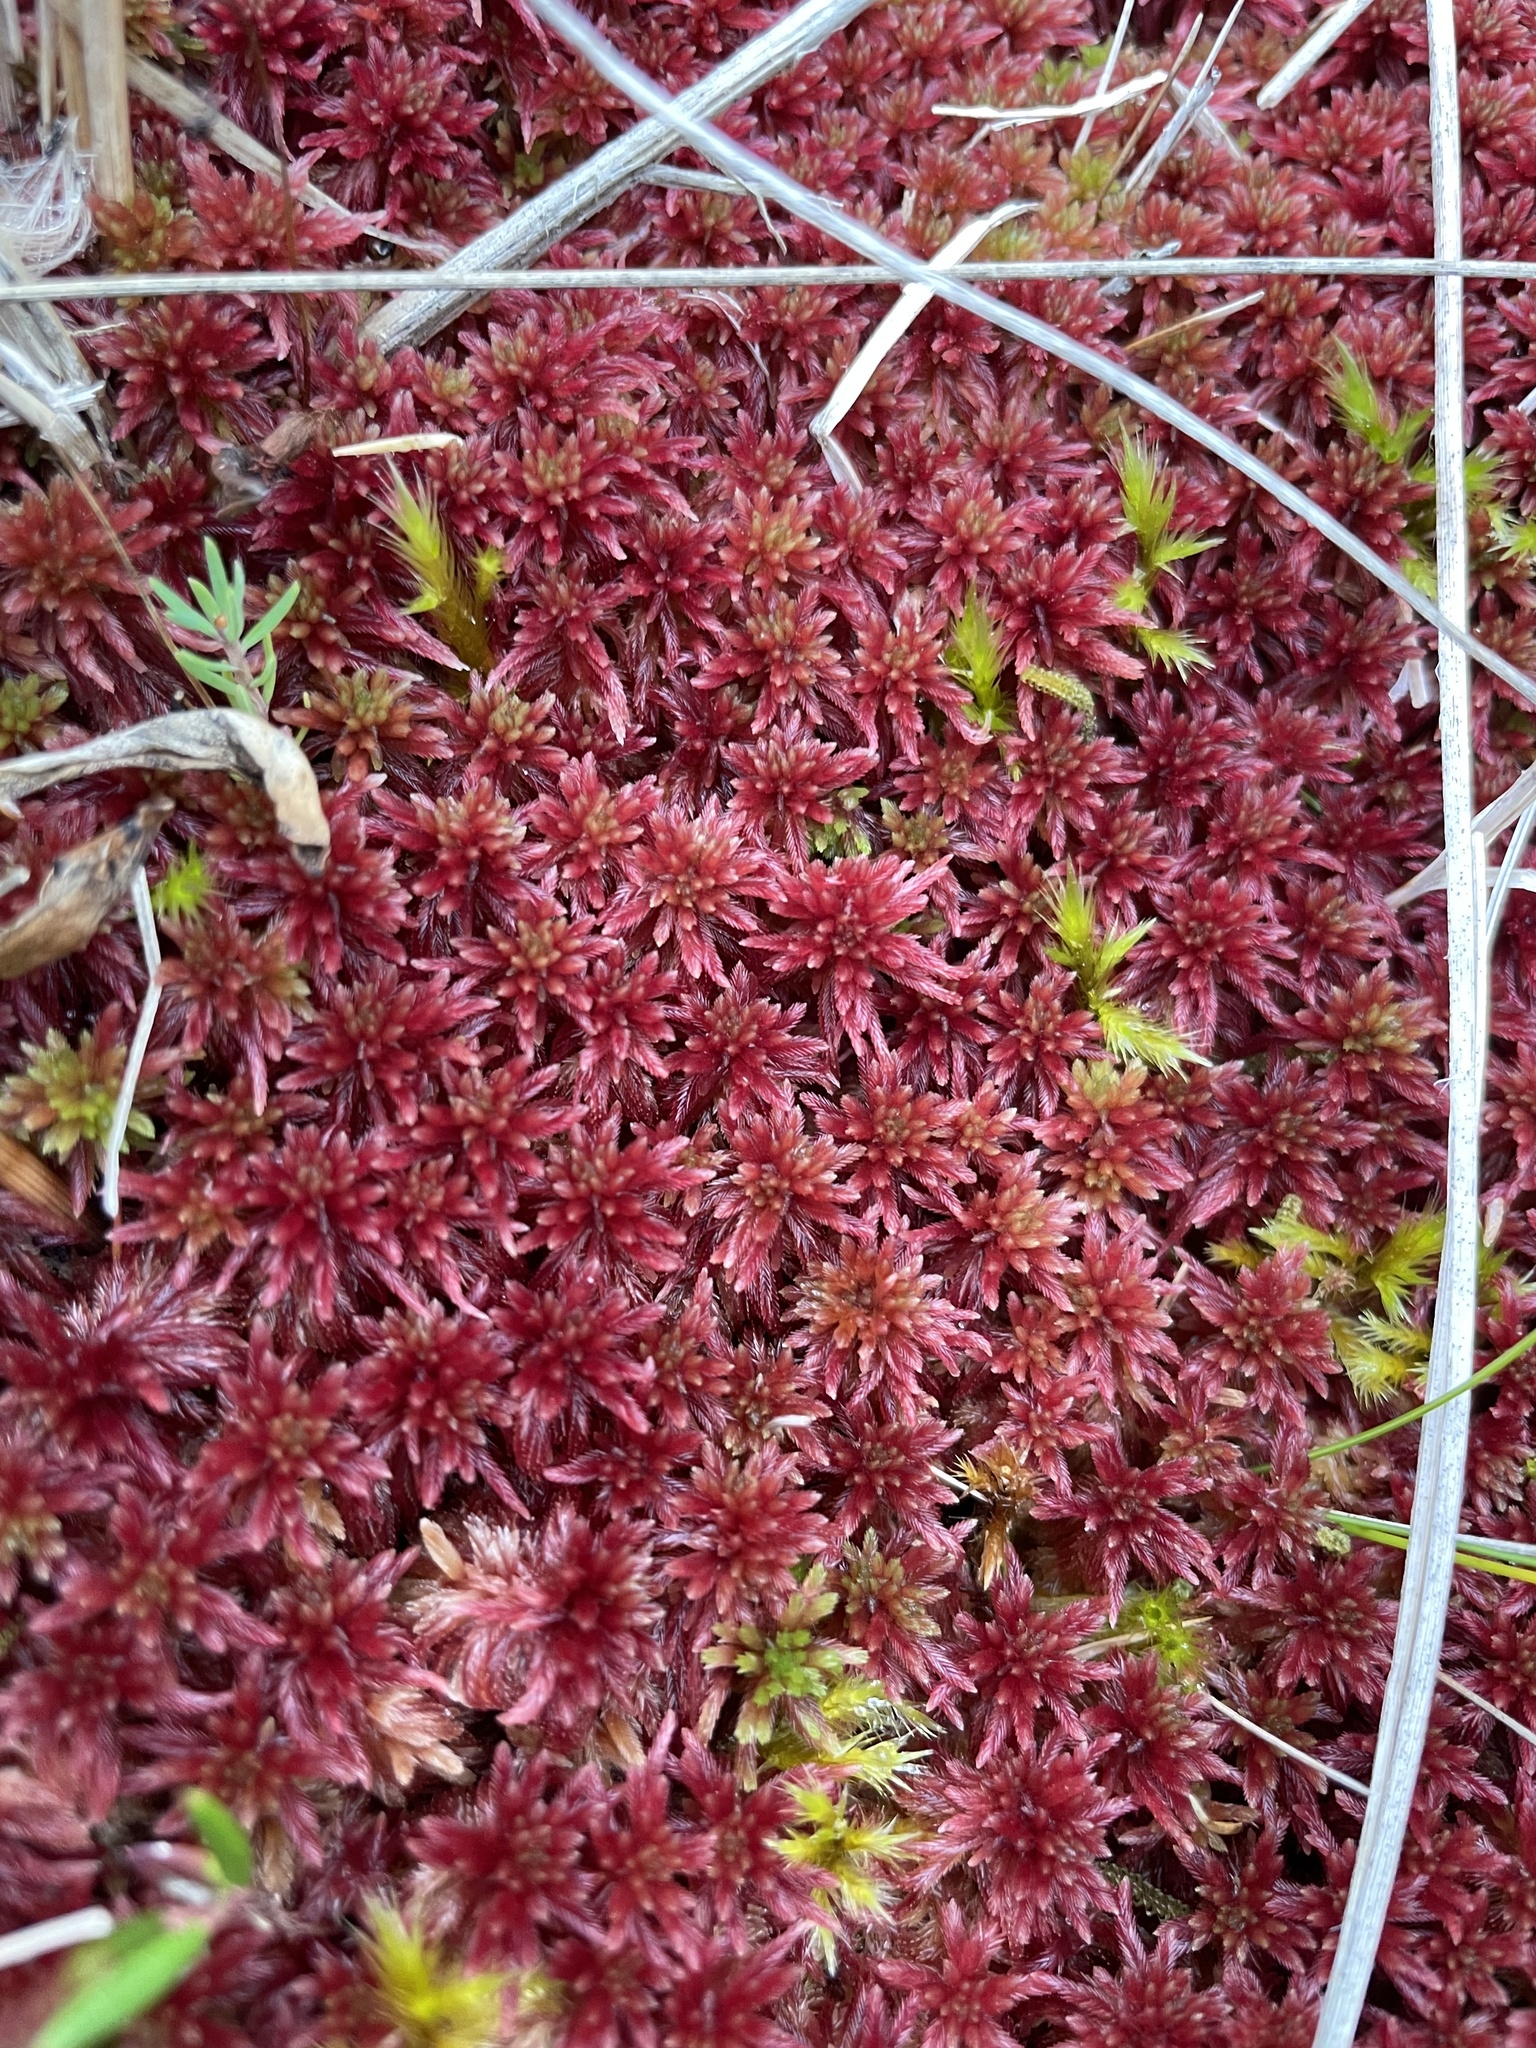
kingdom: Plantae
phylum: Bryophyta
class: Sphagnopsida
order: Sphagnales
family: Sphagnaceae
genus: Sphagnum
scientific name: Sphagnum warnstorfii
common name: Warnstorf's peat moss
